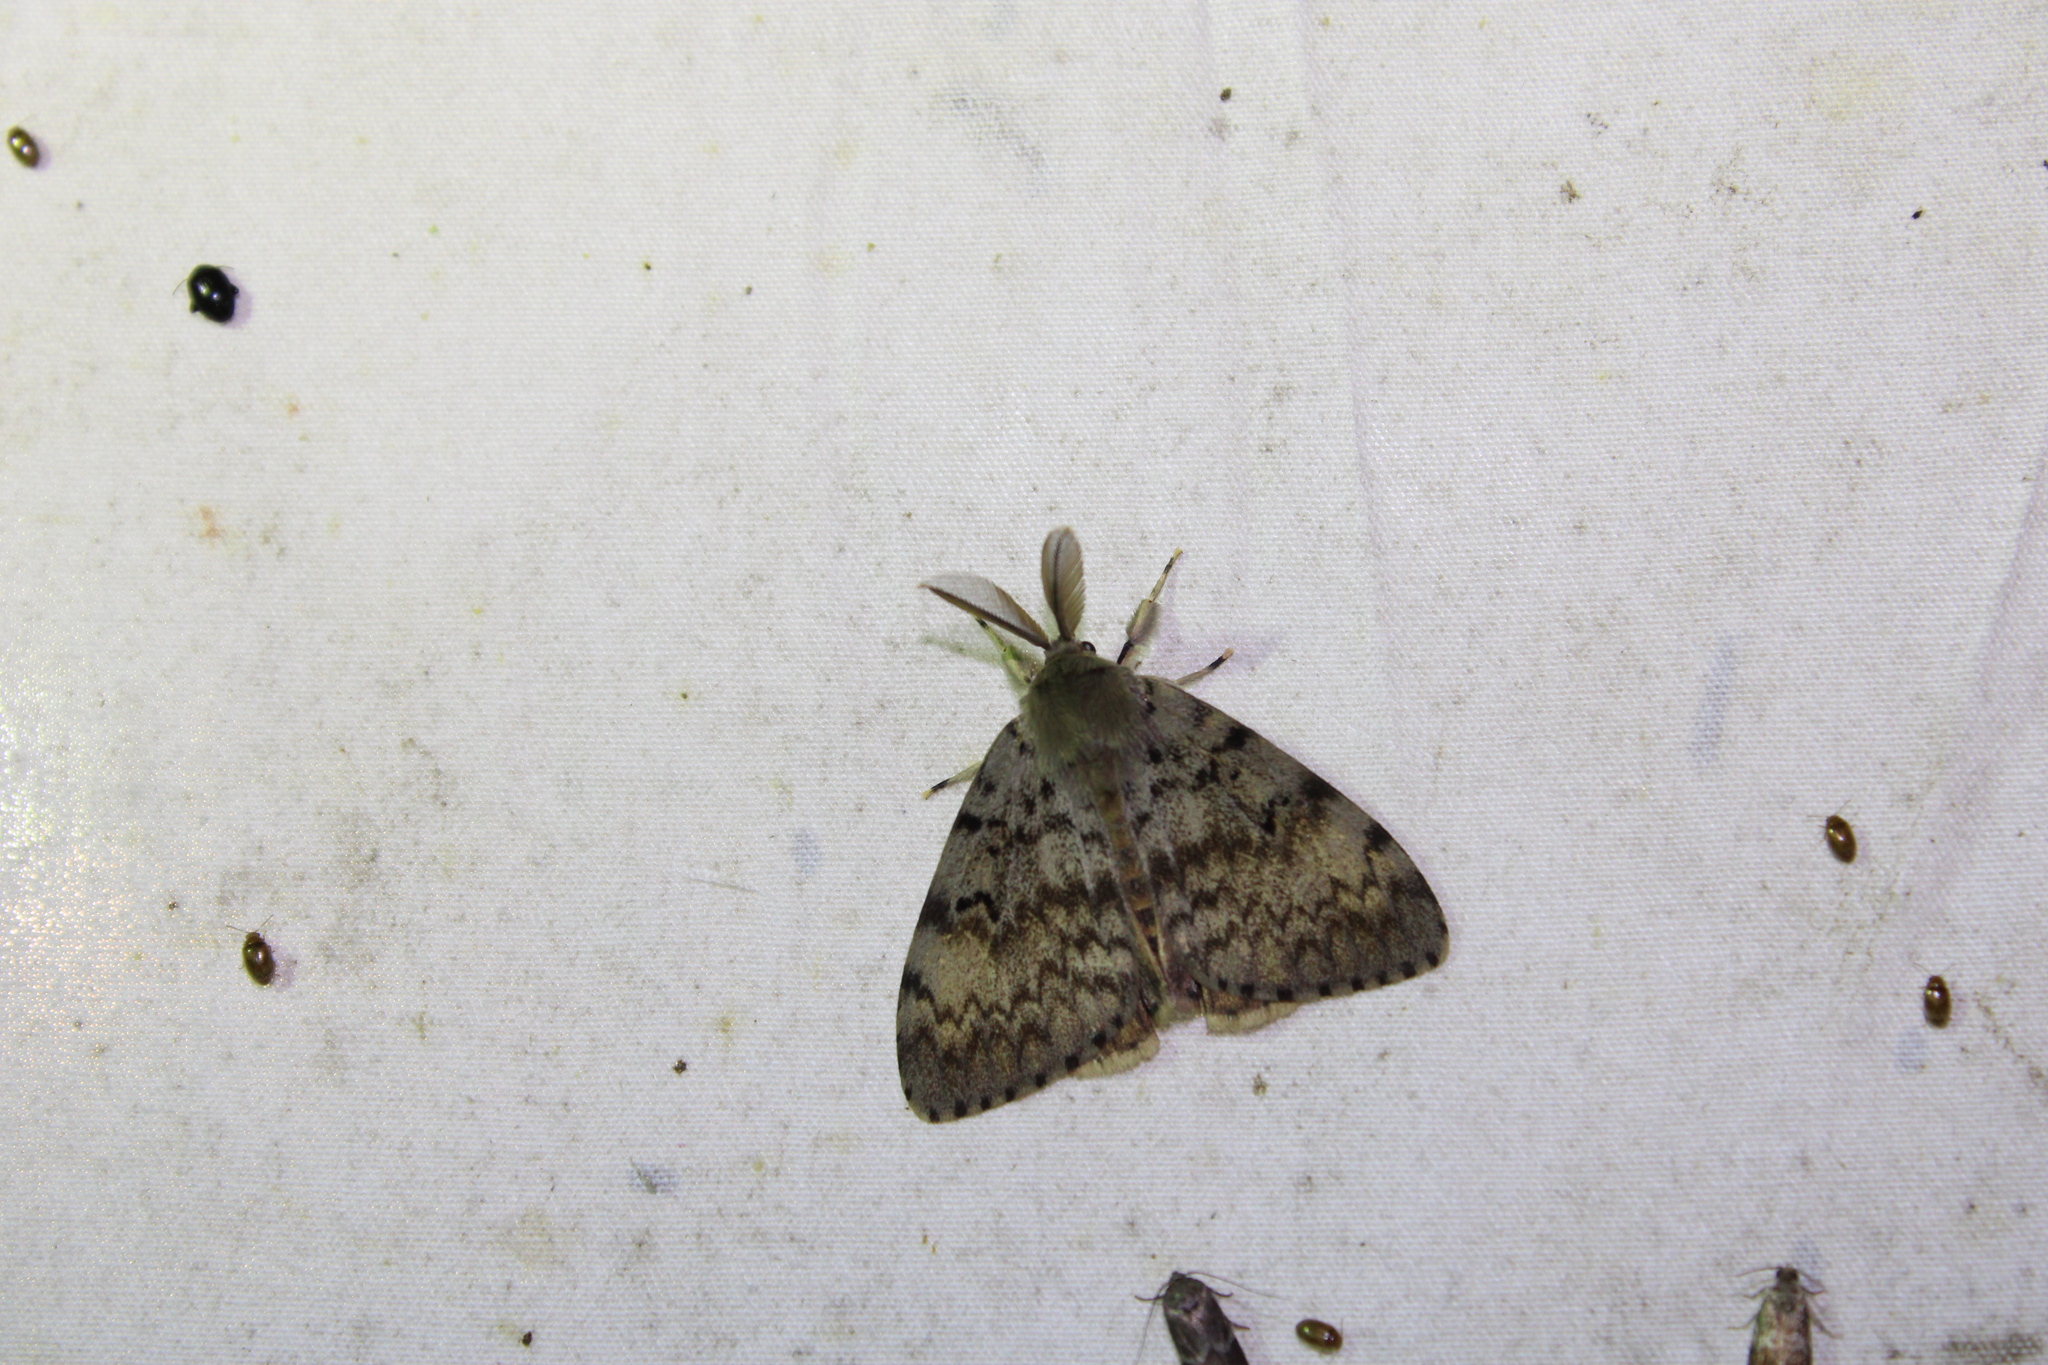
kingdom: Animalia
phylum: Arthropoda
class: Insecta
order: Lepidoptera
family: Erebidae
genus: Lymantria
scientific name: Lymantria dispar
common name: Gypsy moth
